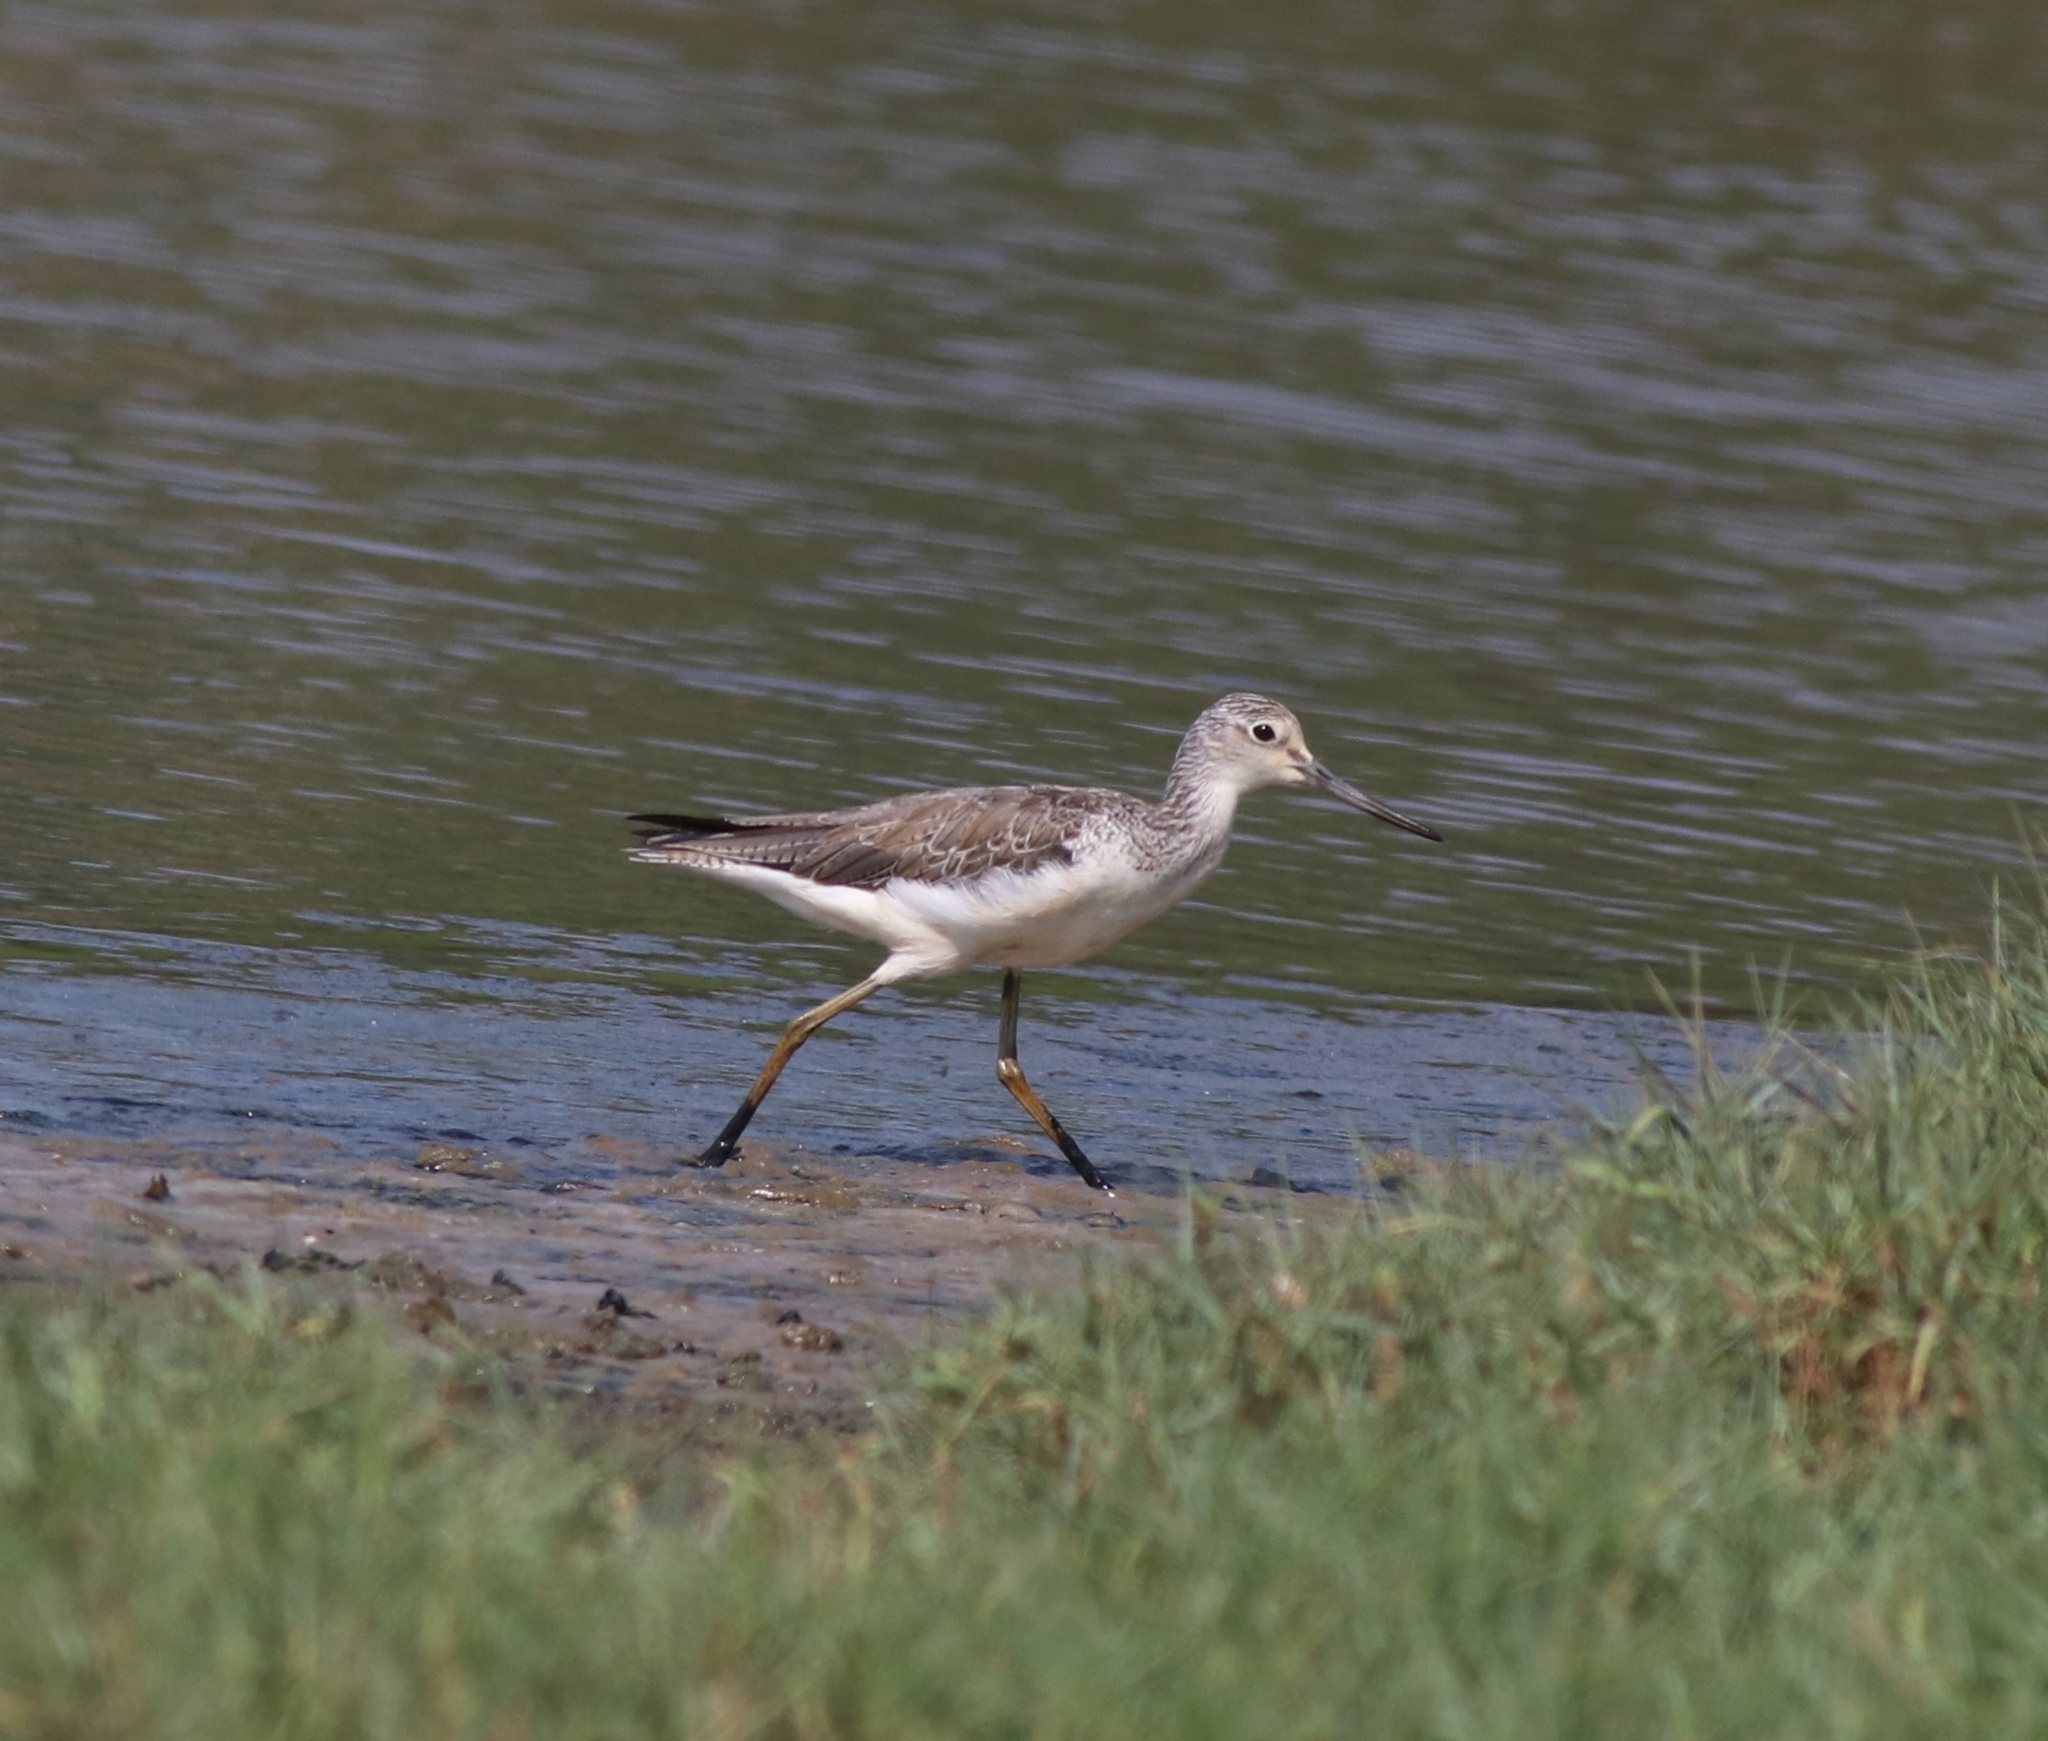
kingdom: Animalia
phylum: Chordata
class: Aves
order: Charadriiformes
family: Scolopacidae
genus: Tringa
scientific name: Tringa nebularia
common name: Common greenshank
